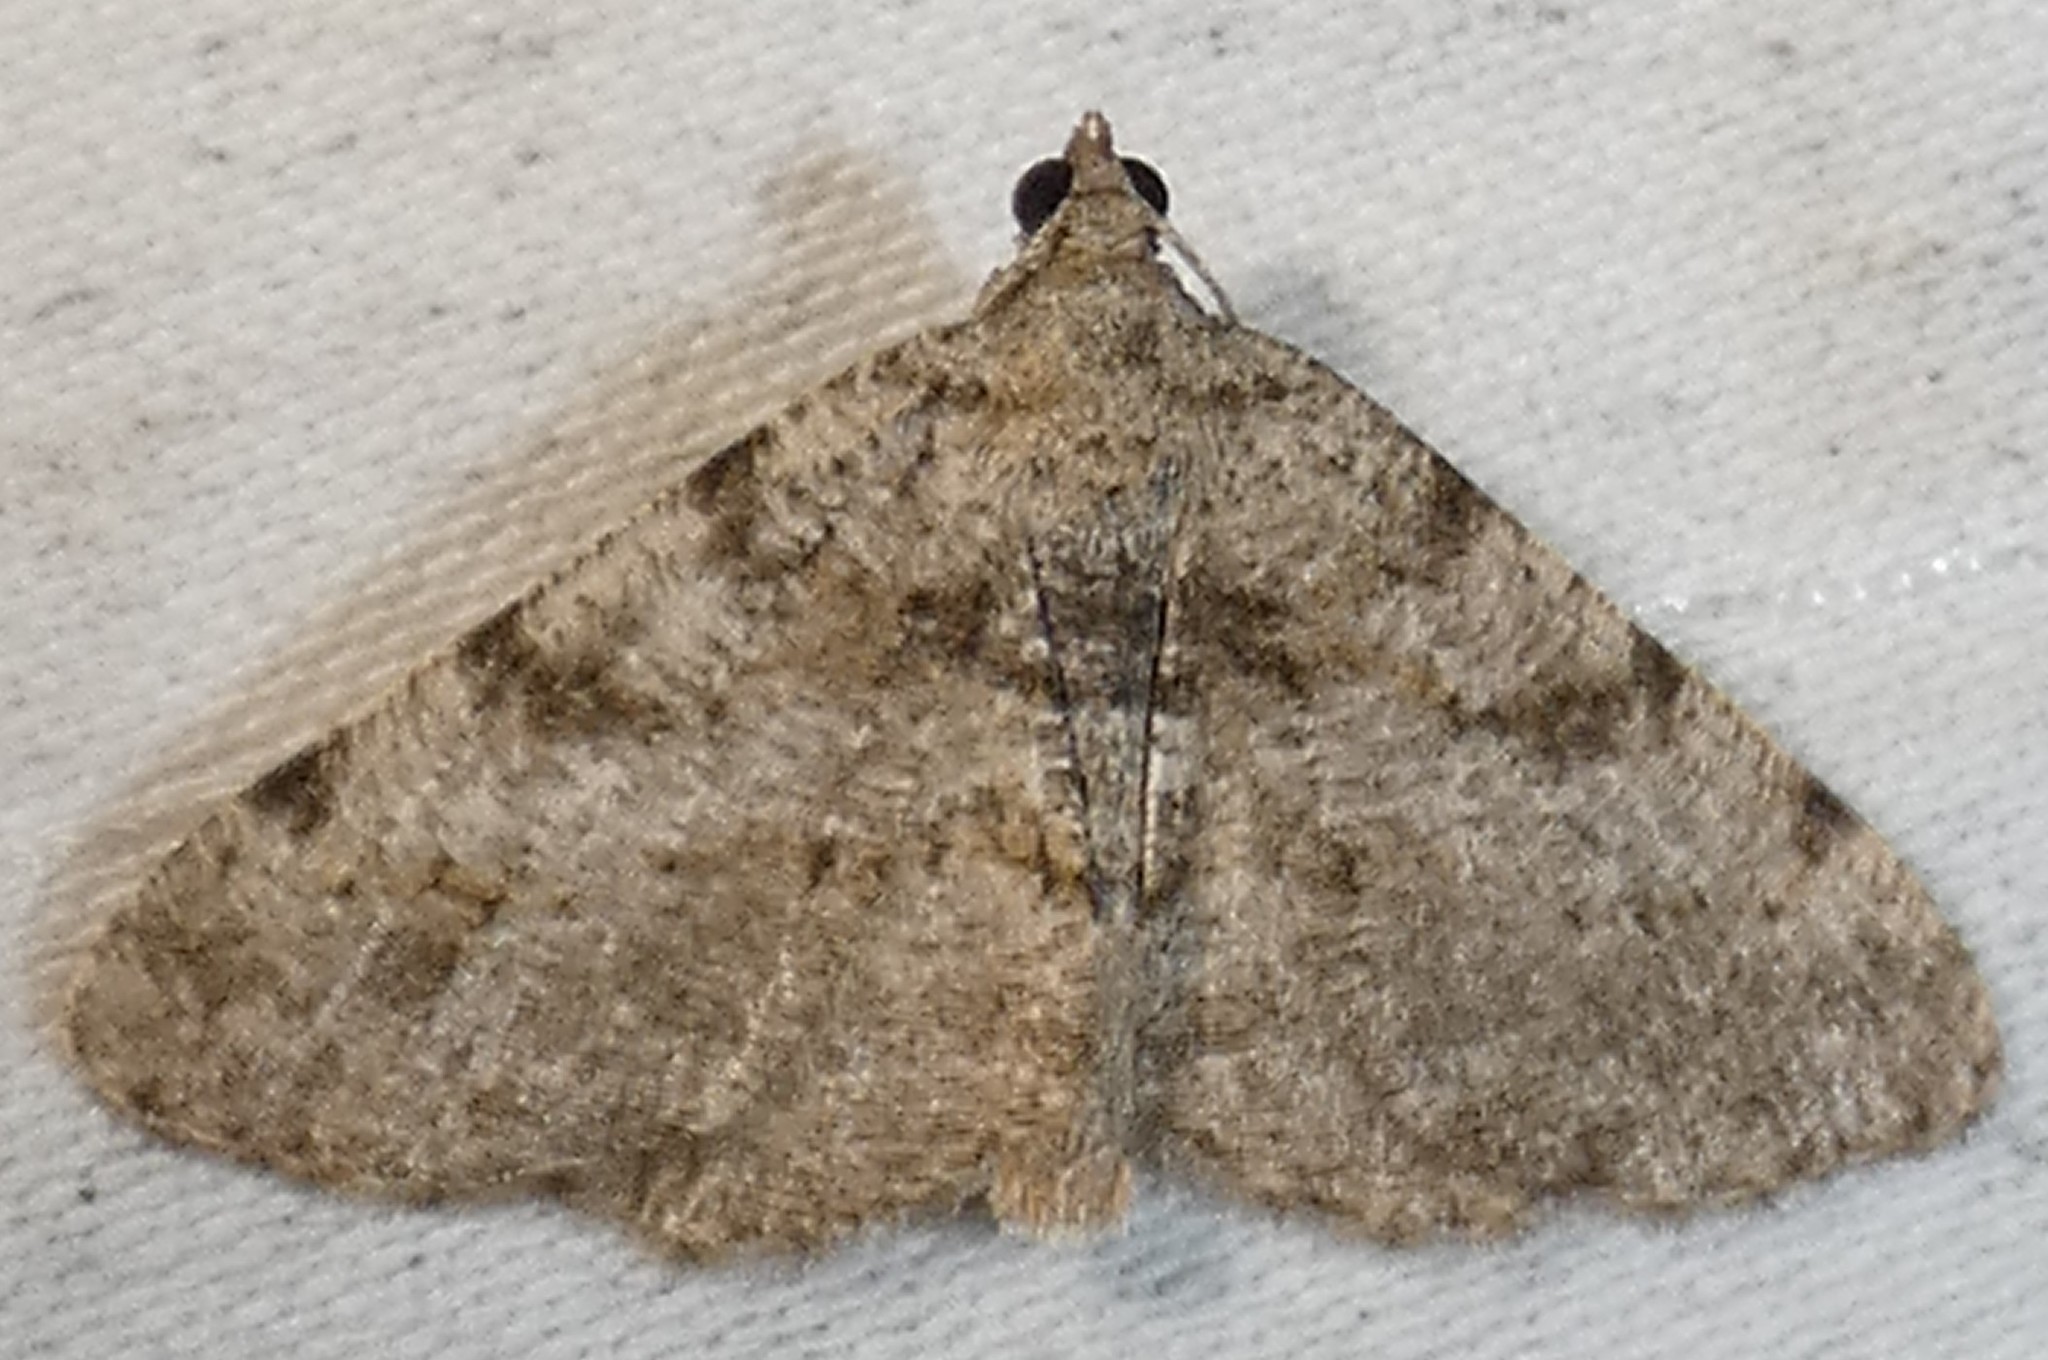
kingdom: Animalia
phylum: Arthropoda
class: Insecta
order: Lepidoptera
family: Geometridae
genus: Digrammia
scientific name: Digrammia gnophosaria
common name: Hollow-spotted angle
